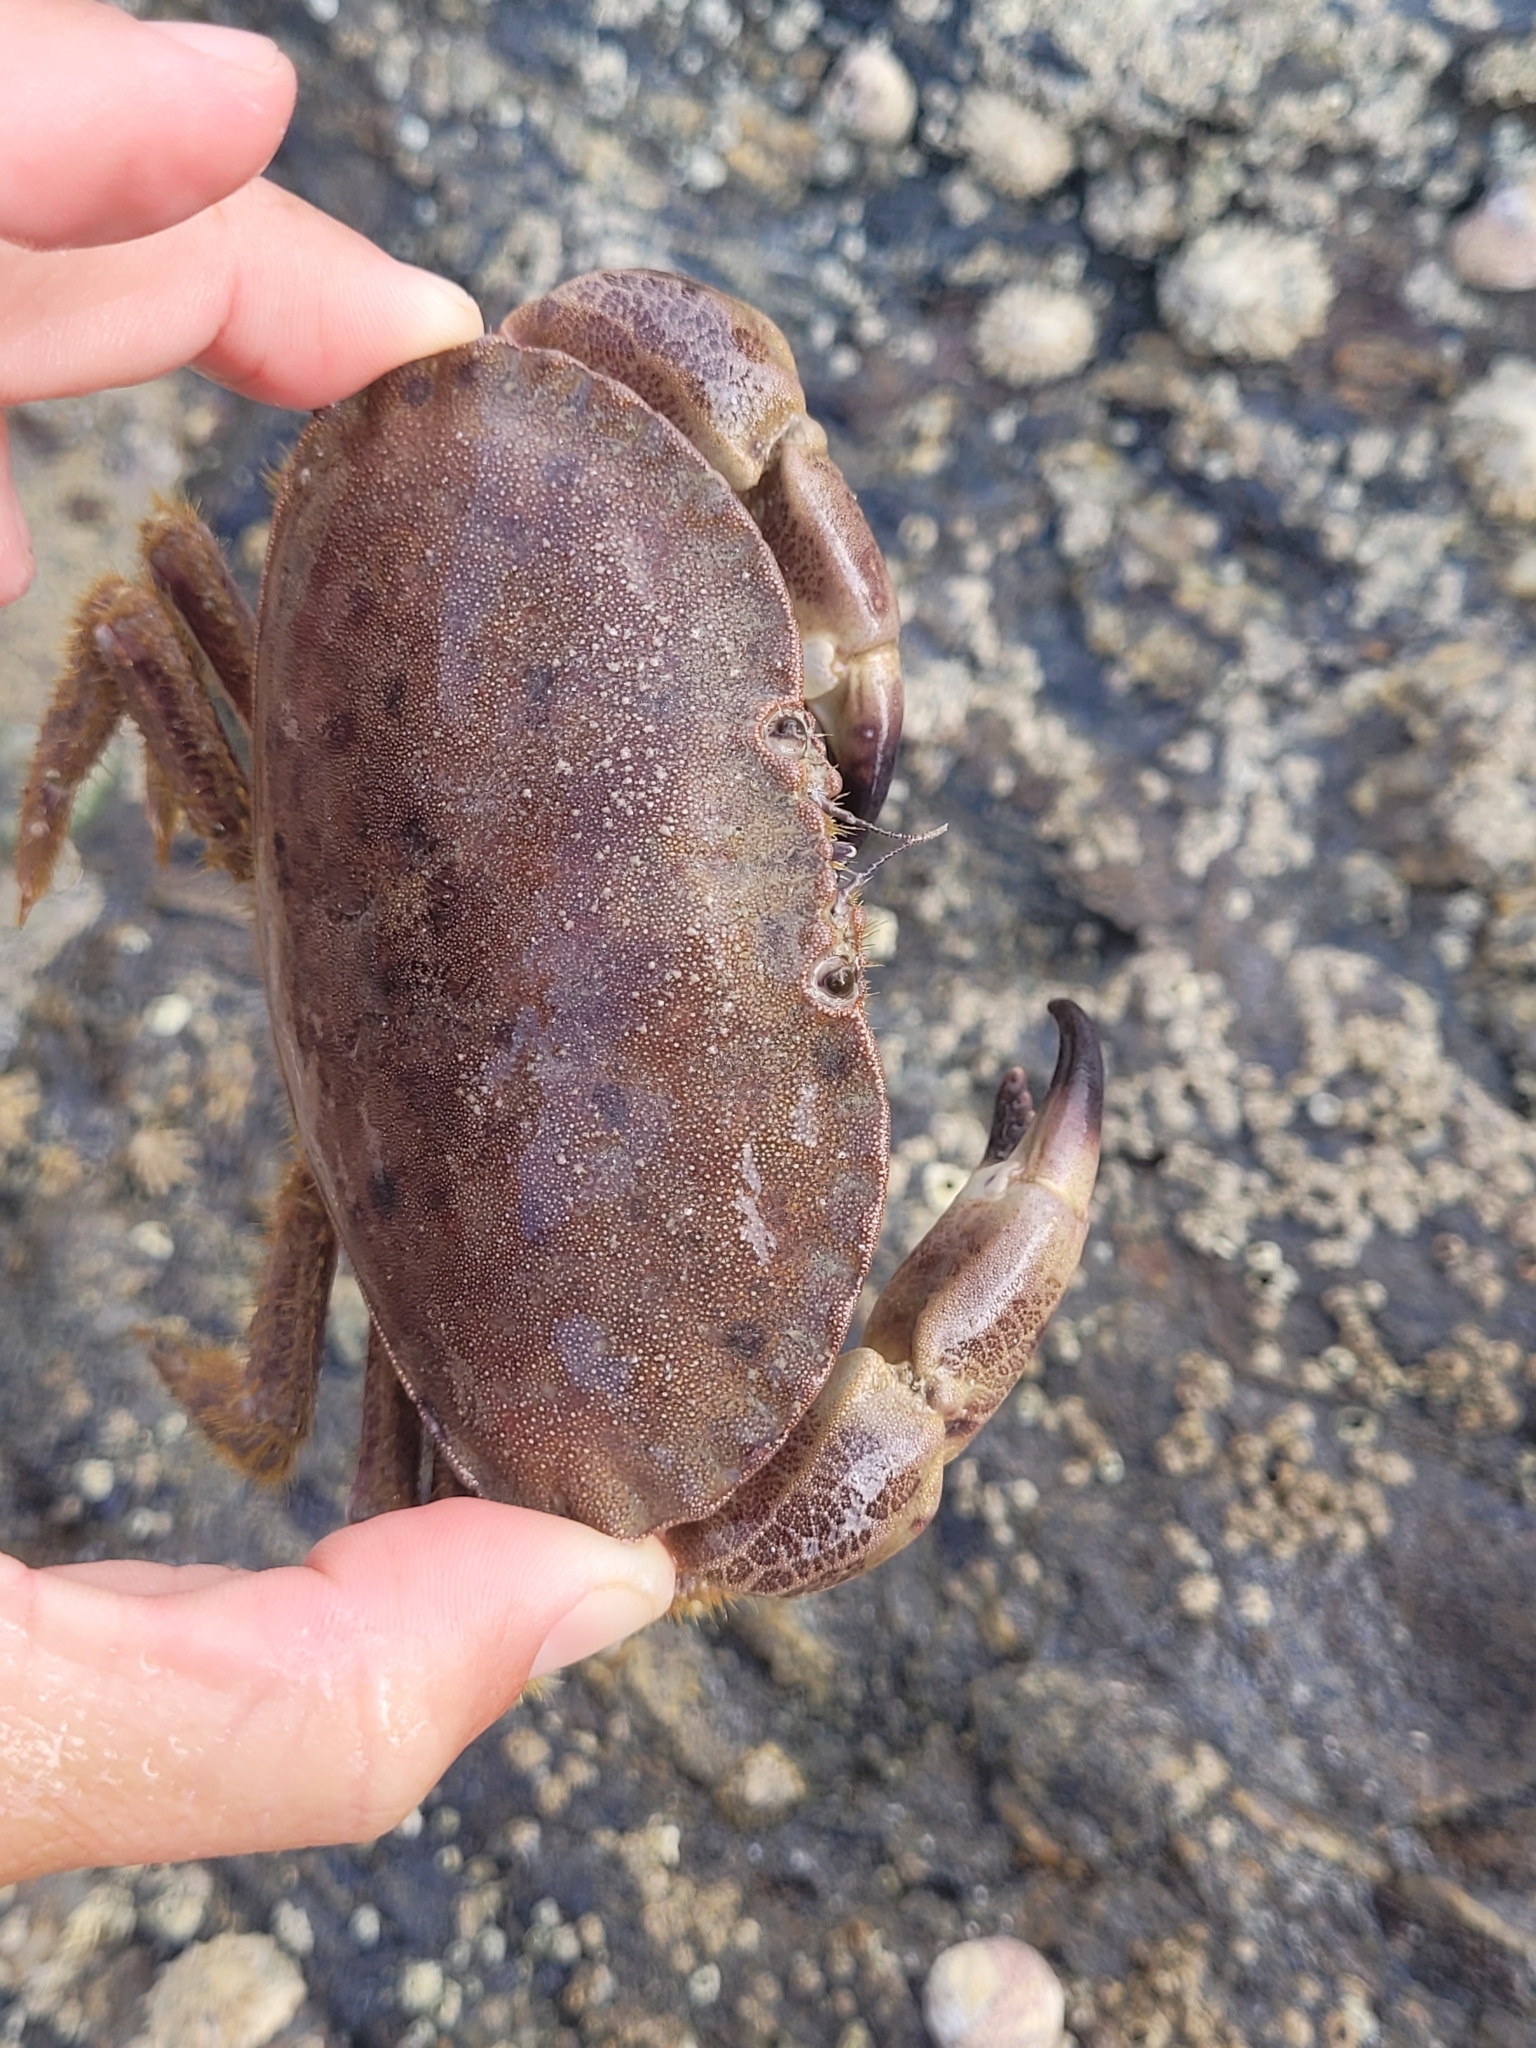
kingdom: Animalia
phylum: Arthropoda
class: Malacostraca
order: Decapoda
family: Cancridae
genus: Cancer
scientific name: Cancer pagurus
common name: Edible crab
